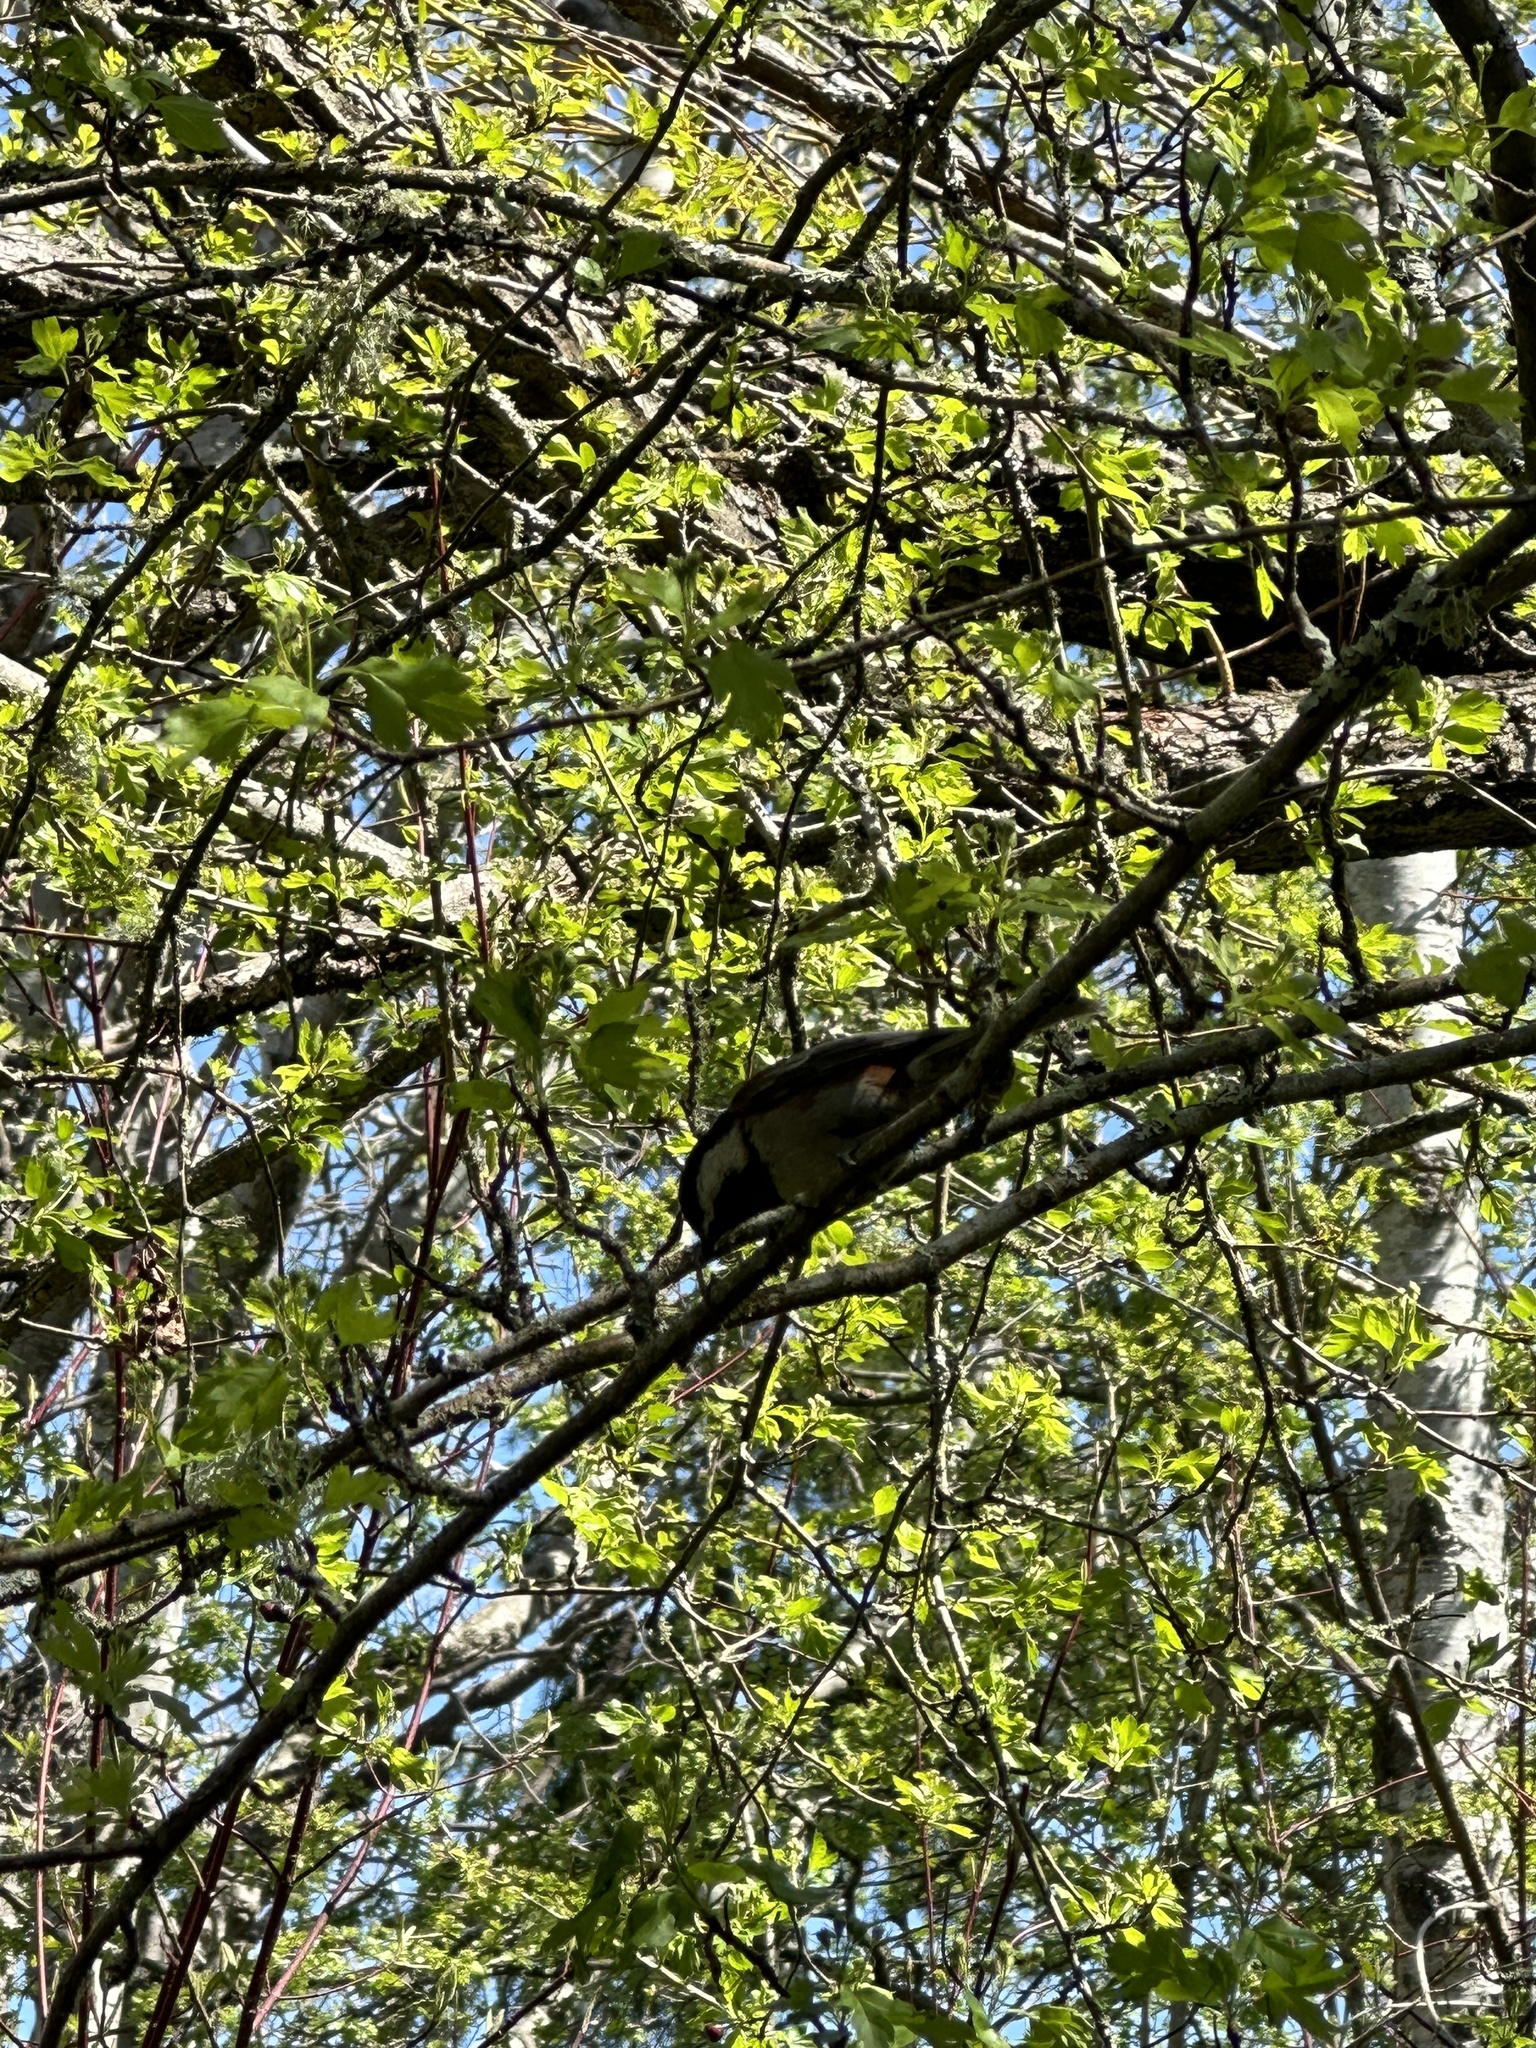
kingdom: Animalia
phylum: Chordata
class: Aves
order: Passeriformes
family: Paridae
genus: Poecile
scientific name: Poecile rufescens
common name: Chestnut-backed chickadee
